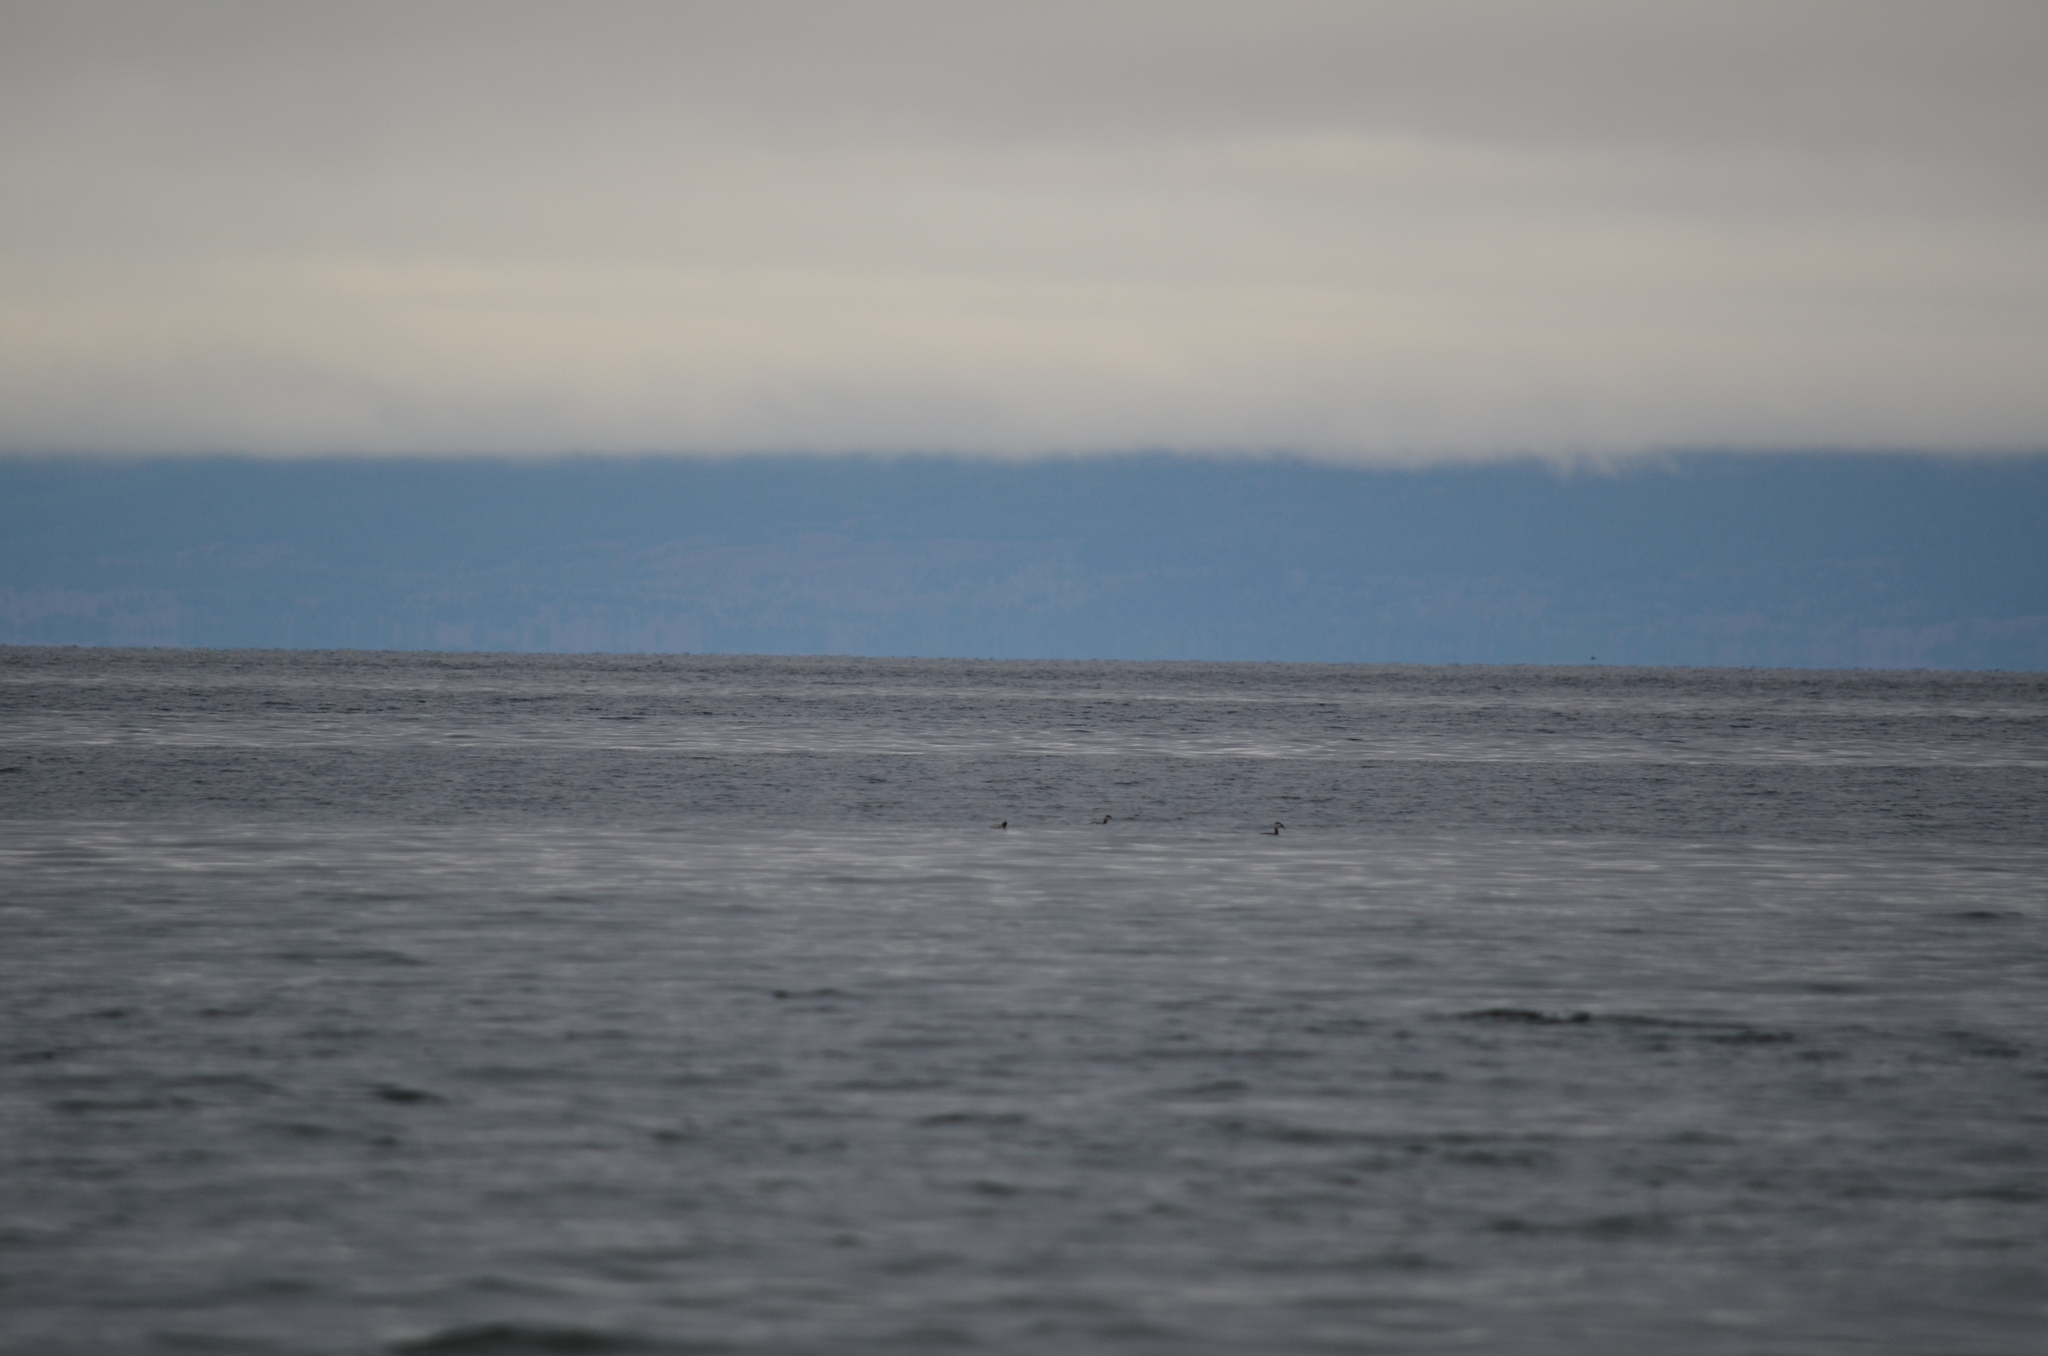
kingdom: Animalia
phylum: Chordata
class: Aves
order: Podicipediformes
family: Podicipedidae
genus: Podiceps
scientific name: Podiceps grisegena
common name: Red-necked grebe
